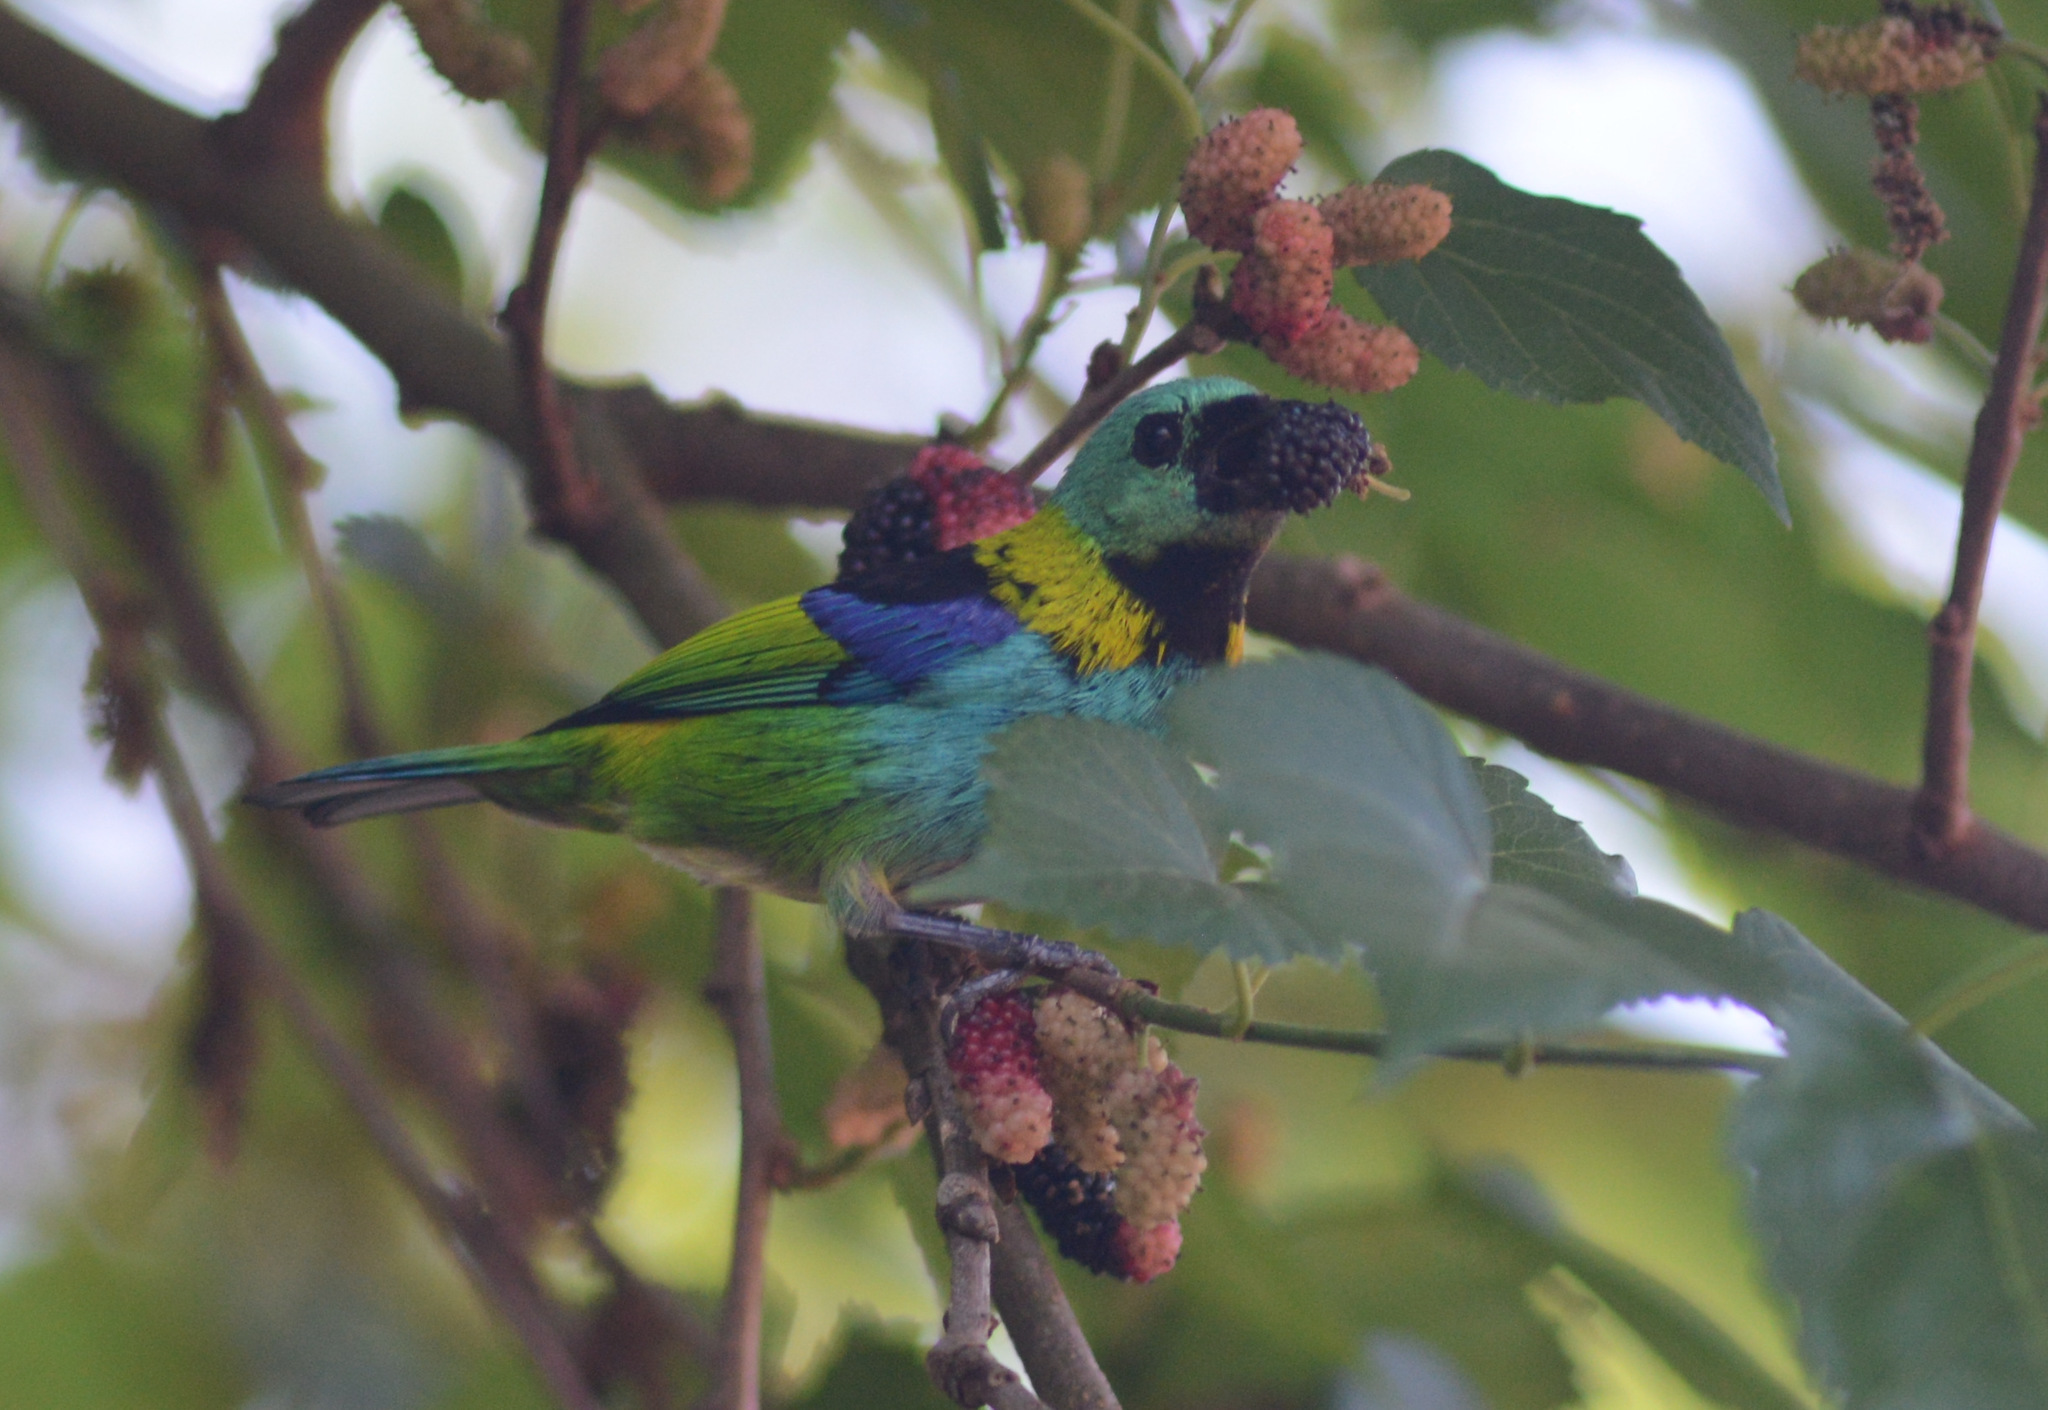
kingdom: Animalia
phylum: Chordata
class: Aves
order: Passeriformes
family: Thraupidae
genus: Tangara
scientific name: Tangara seledon
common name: Green-headed tanager
